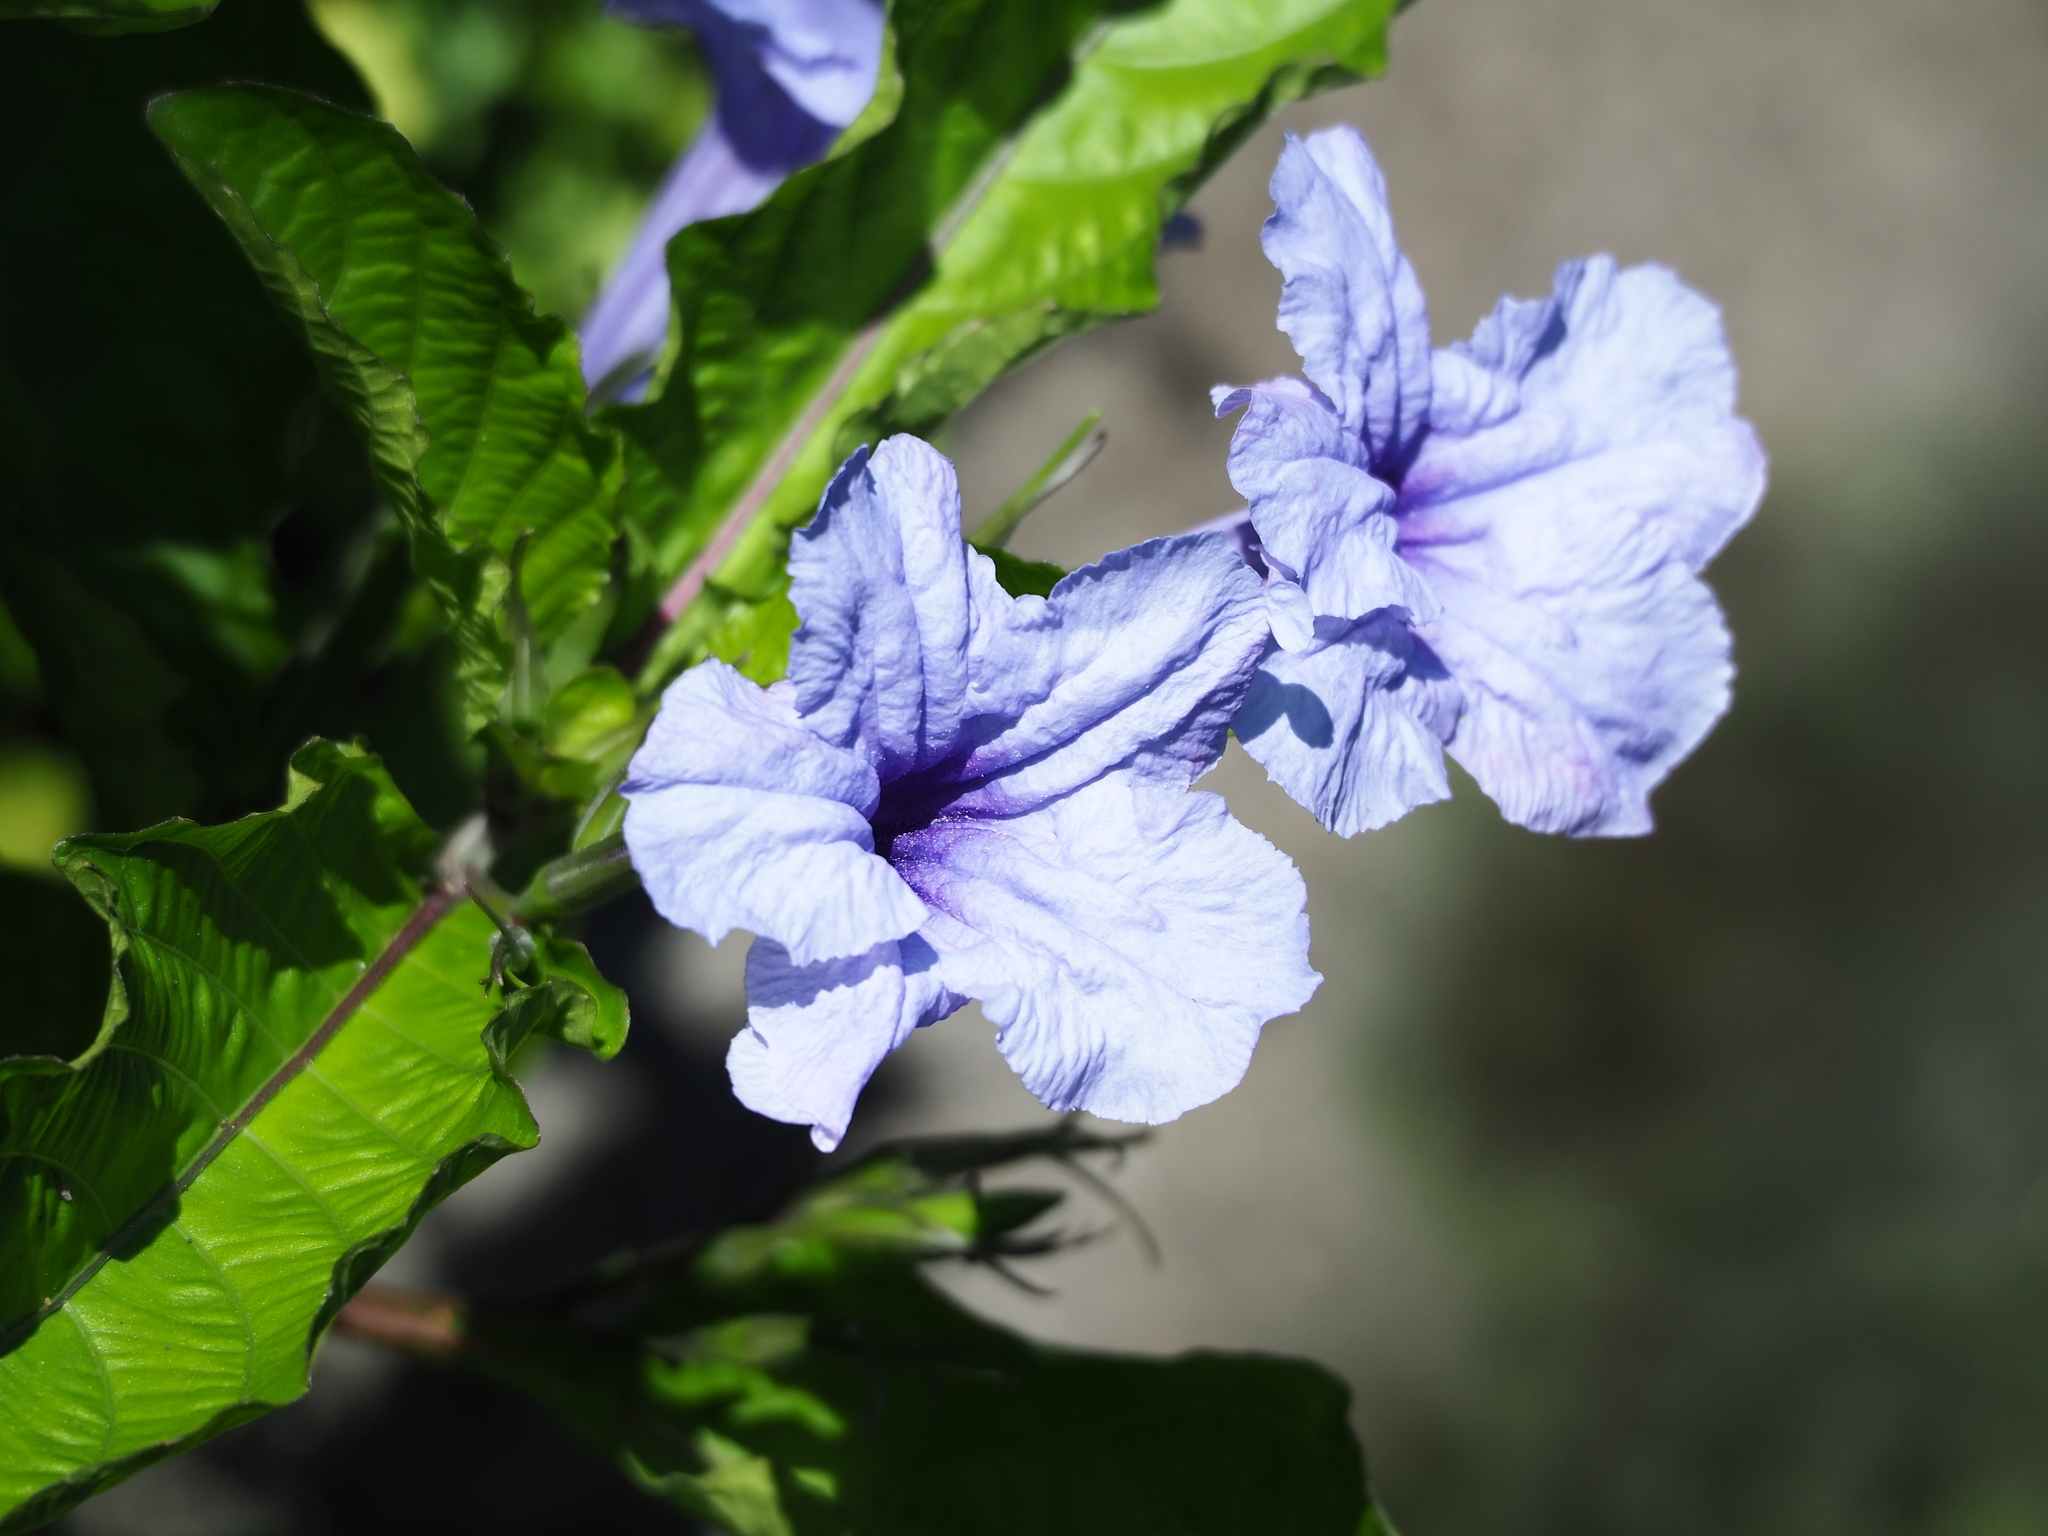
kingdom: Plantae
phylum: Tracheophyta
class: Magnoliopsida
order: Lamiales
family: Acanthaceae
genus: Ruellia
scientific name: Ruellia tuberosa
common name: Devil's bit
